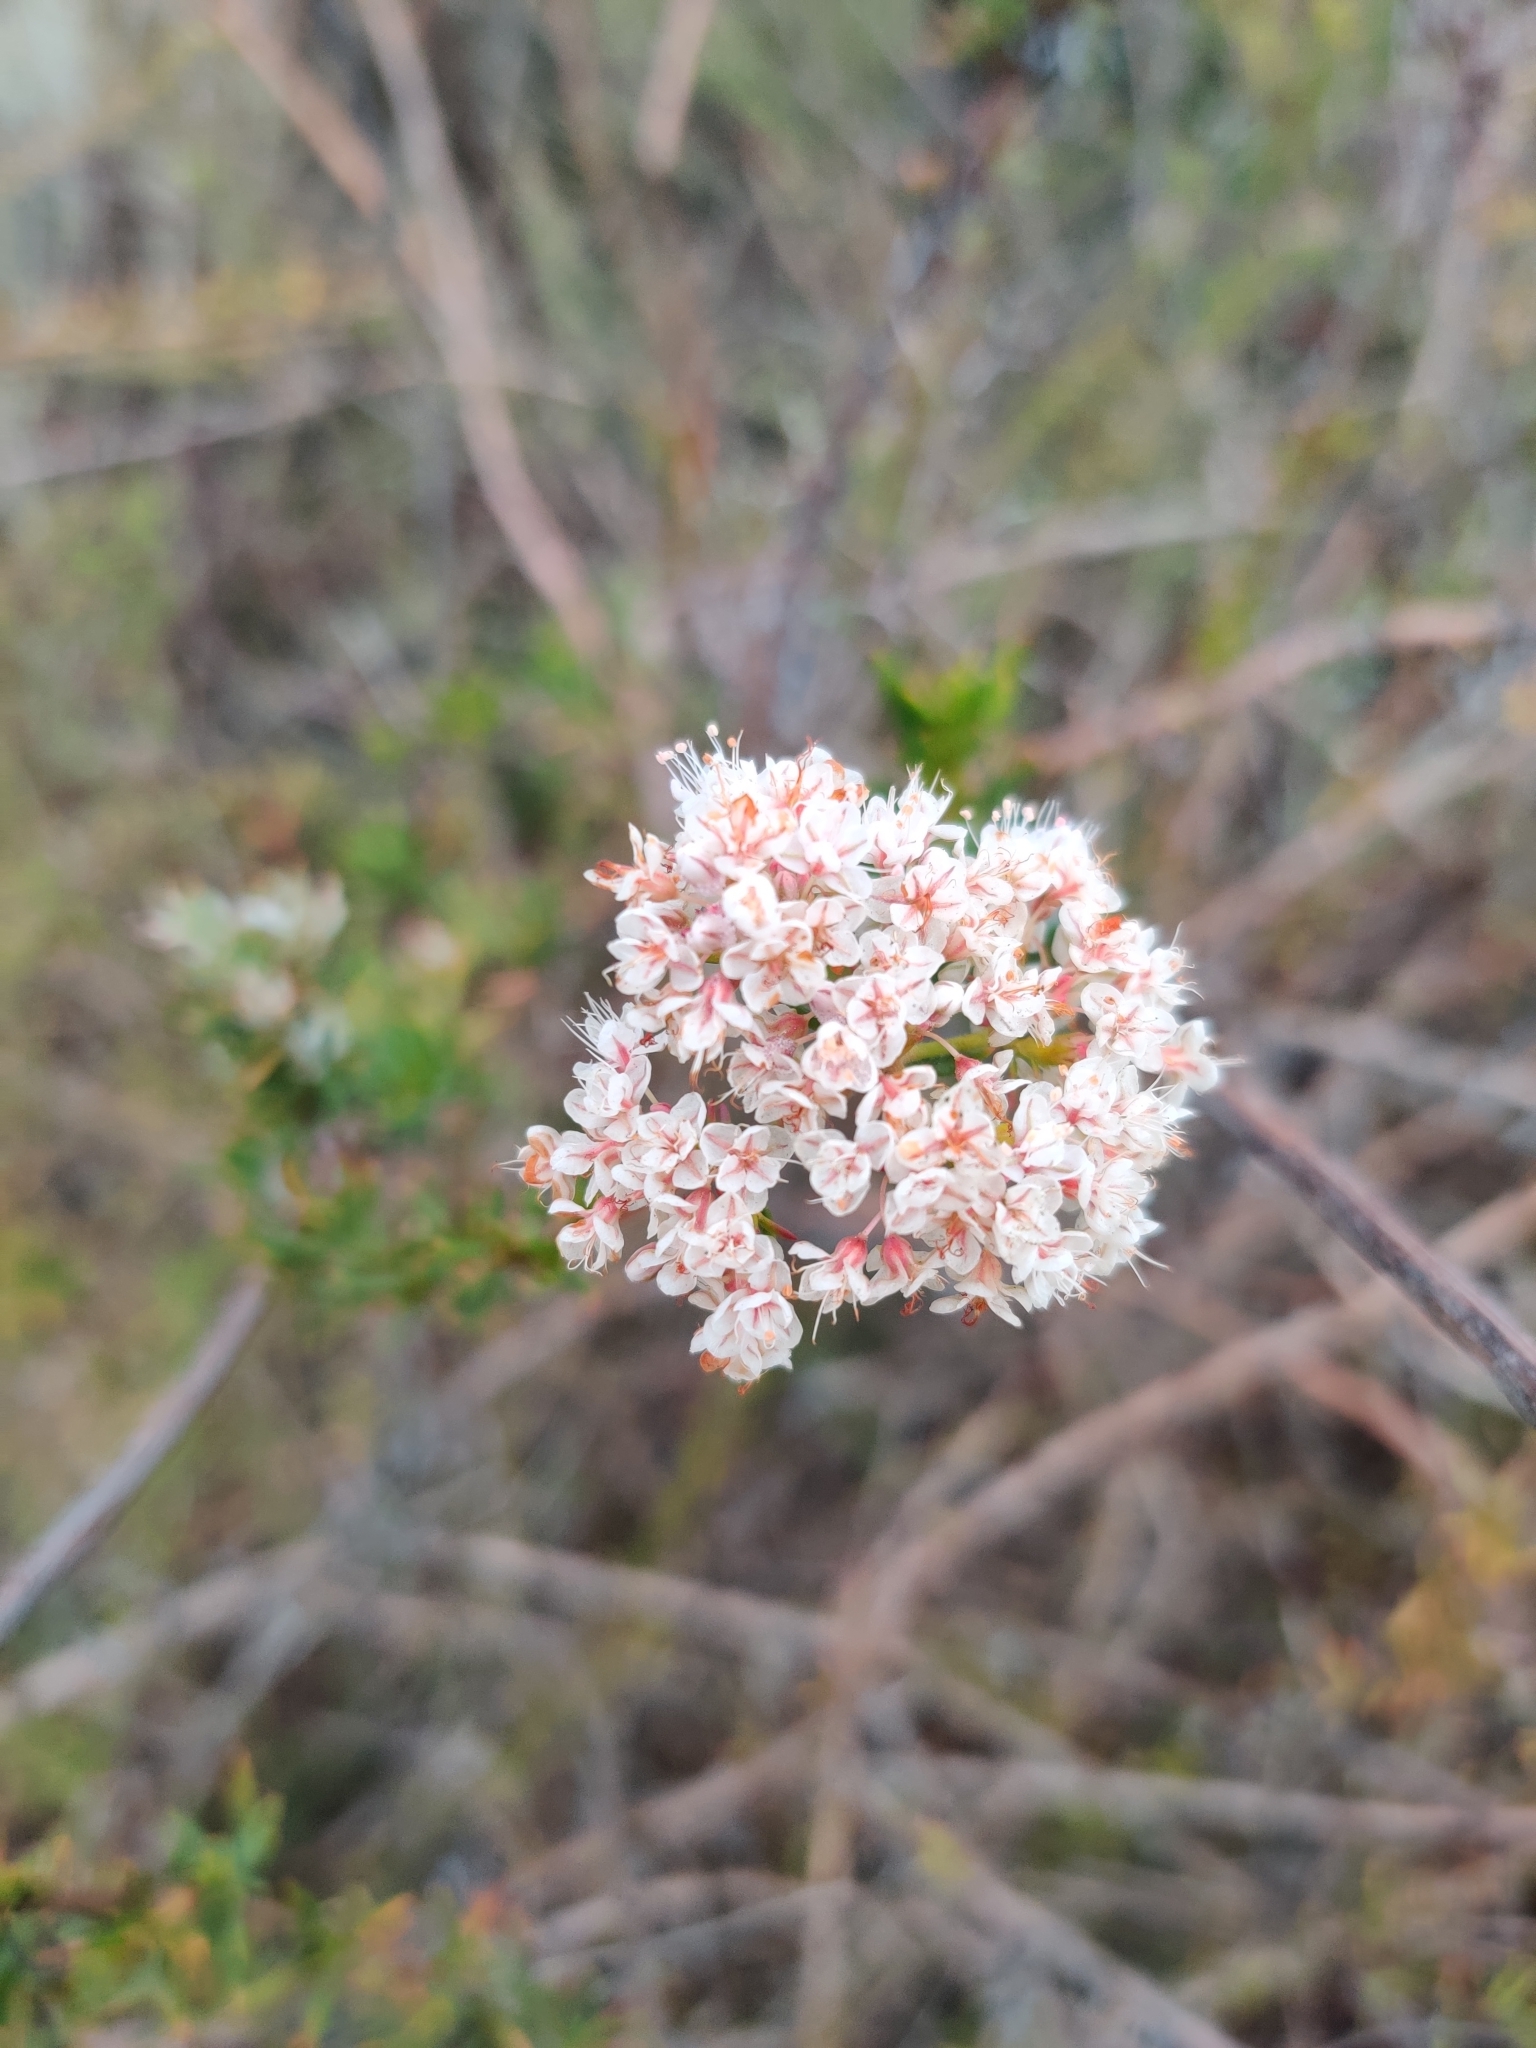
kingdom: Plantae
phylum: Tracheophyta
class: Magnoliopsida
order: Caryophyllales
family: Polygonaceae
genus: Eriogonum
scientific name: Eriogonum fasciculatum
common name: California wild buckwheat
